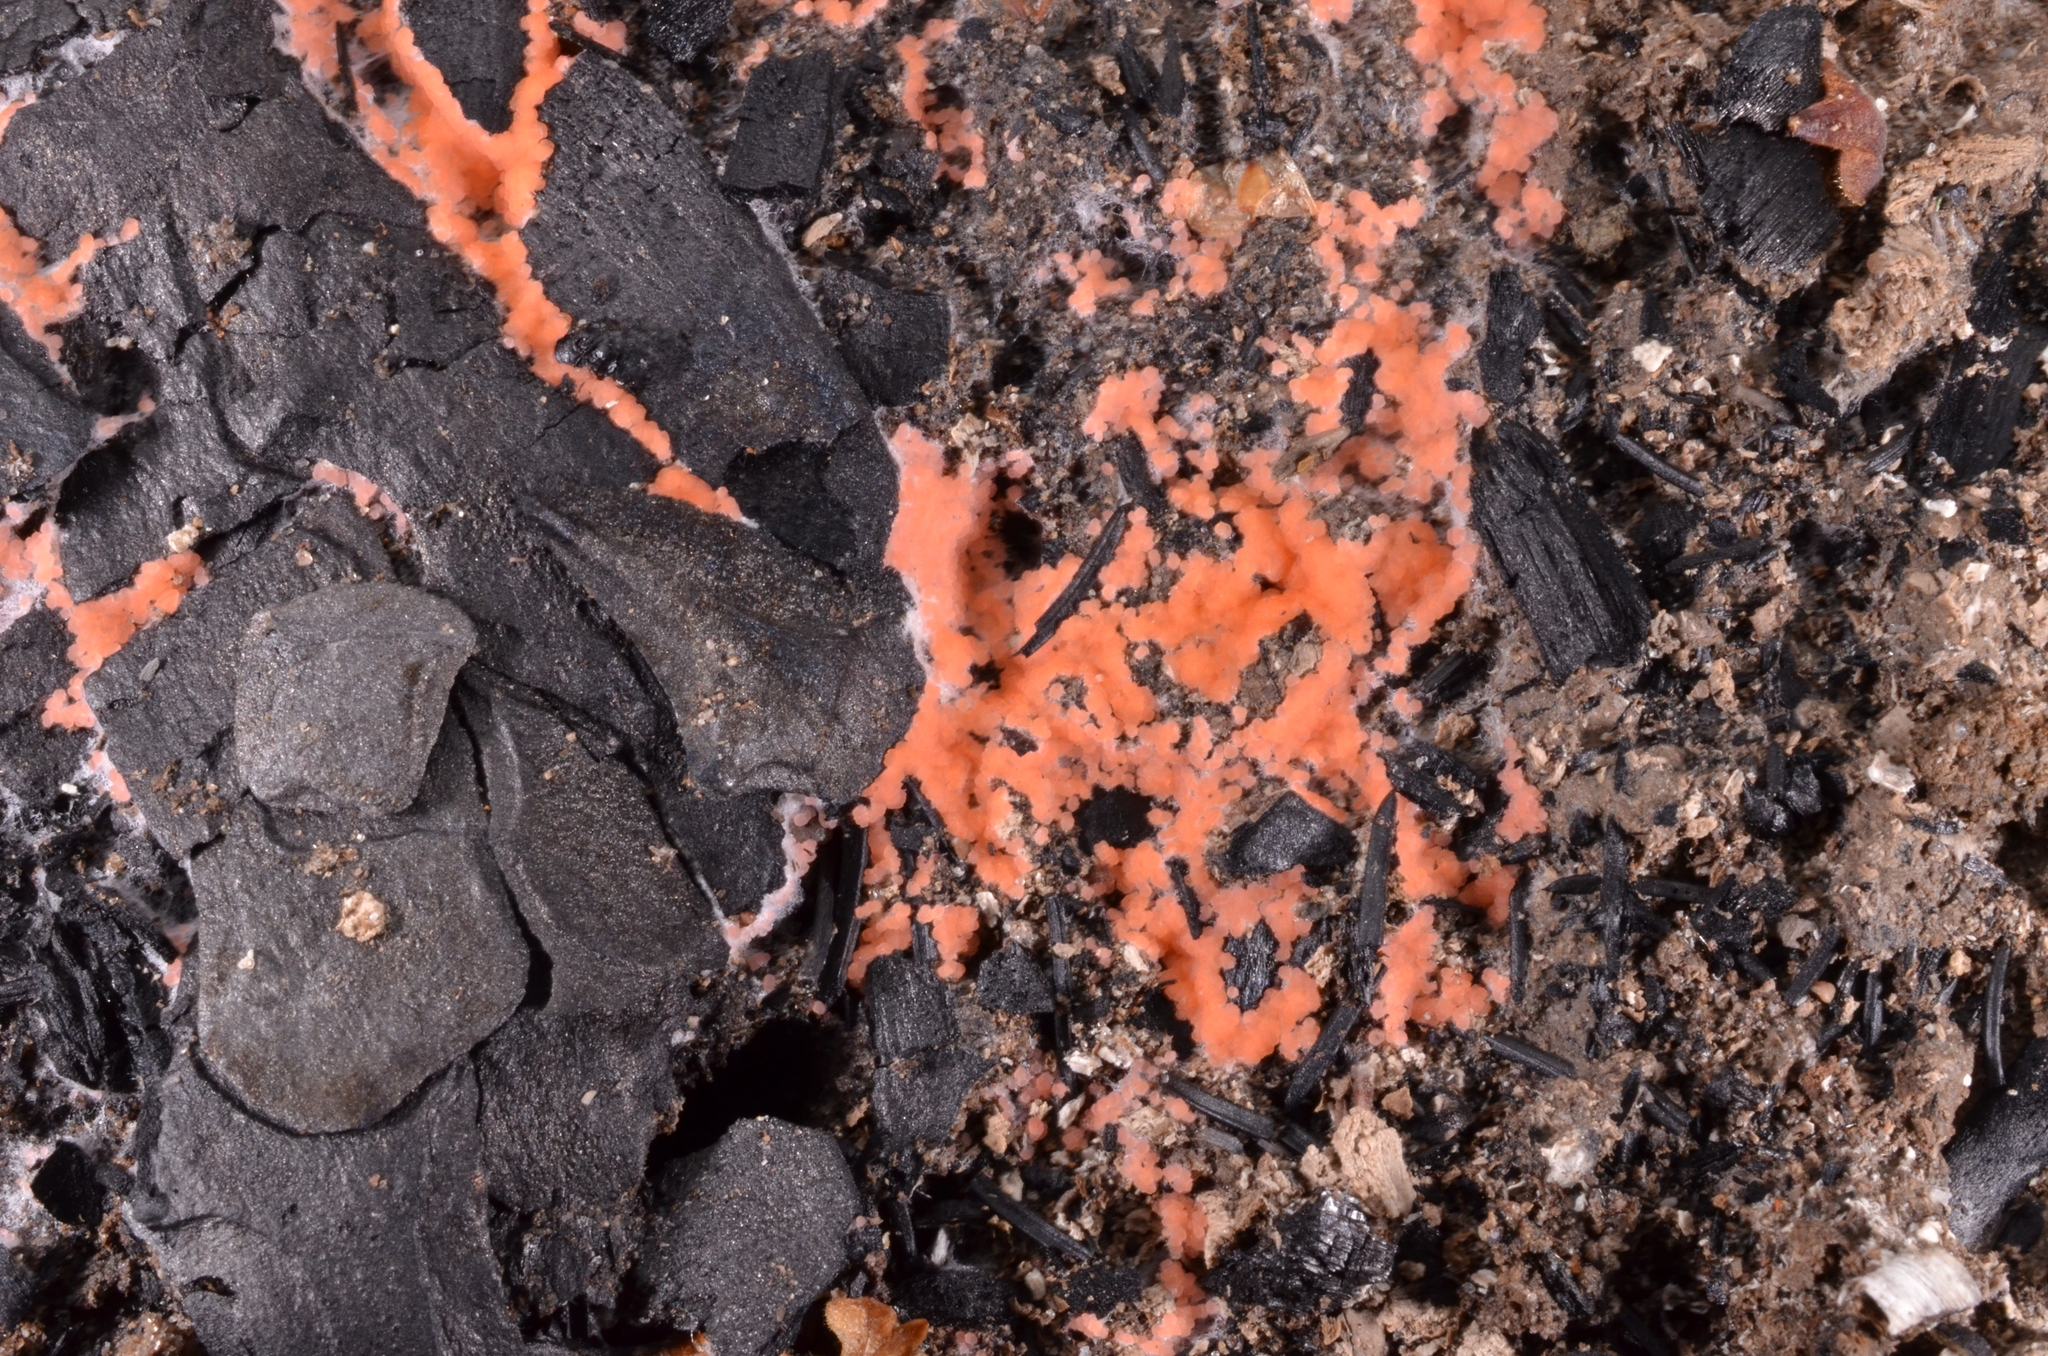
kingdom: Fungi
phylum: Ascomycota
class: Pezizomycetes
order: Pezizales
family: Pyronemataceae
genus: Pyronema
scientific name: Pyronema omphalodes
